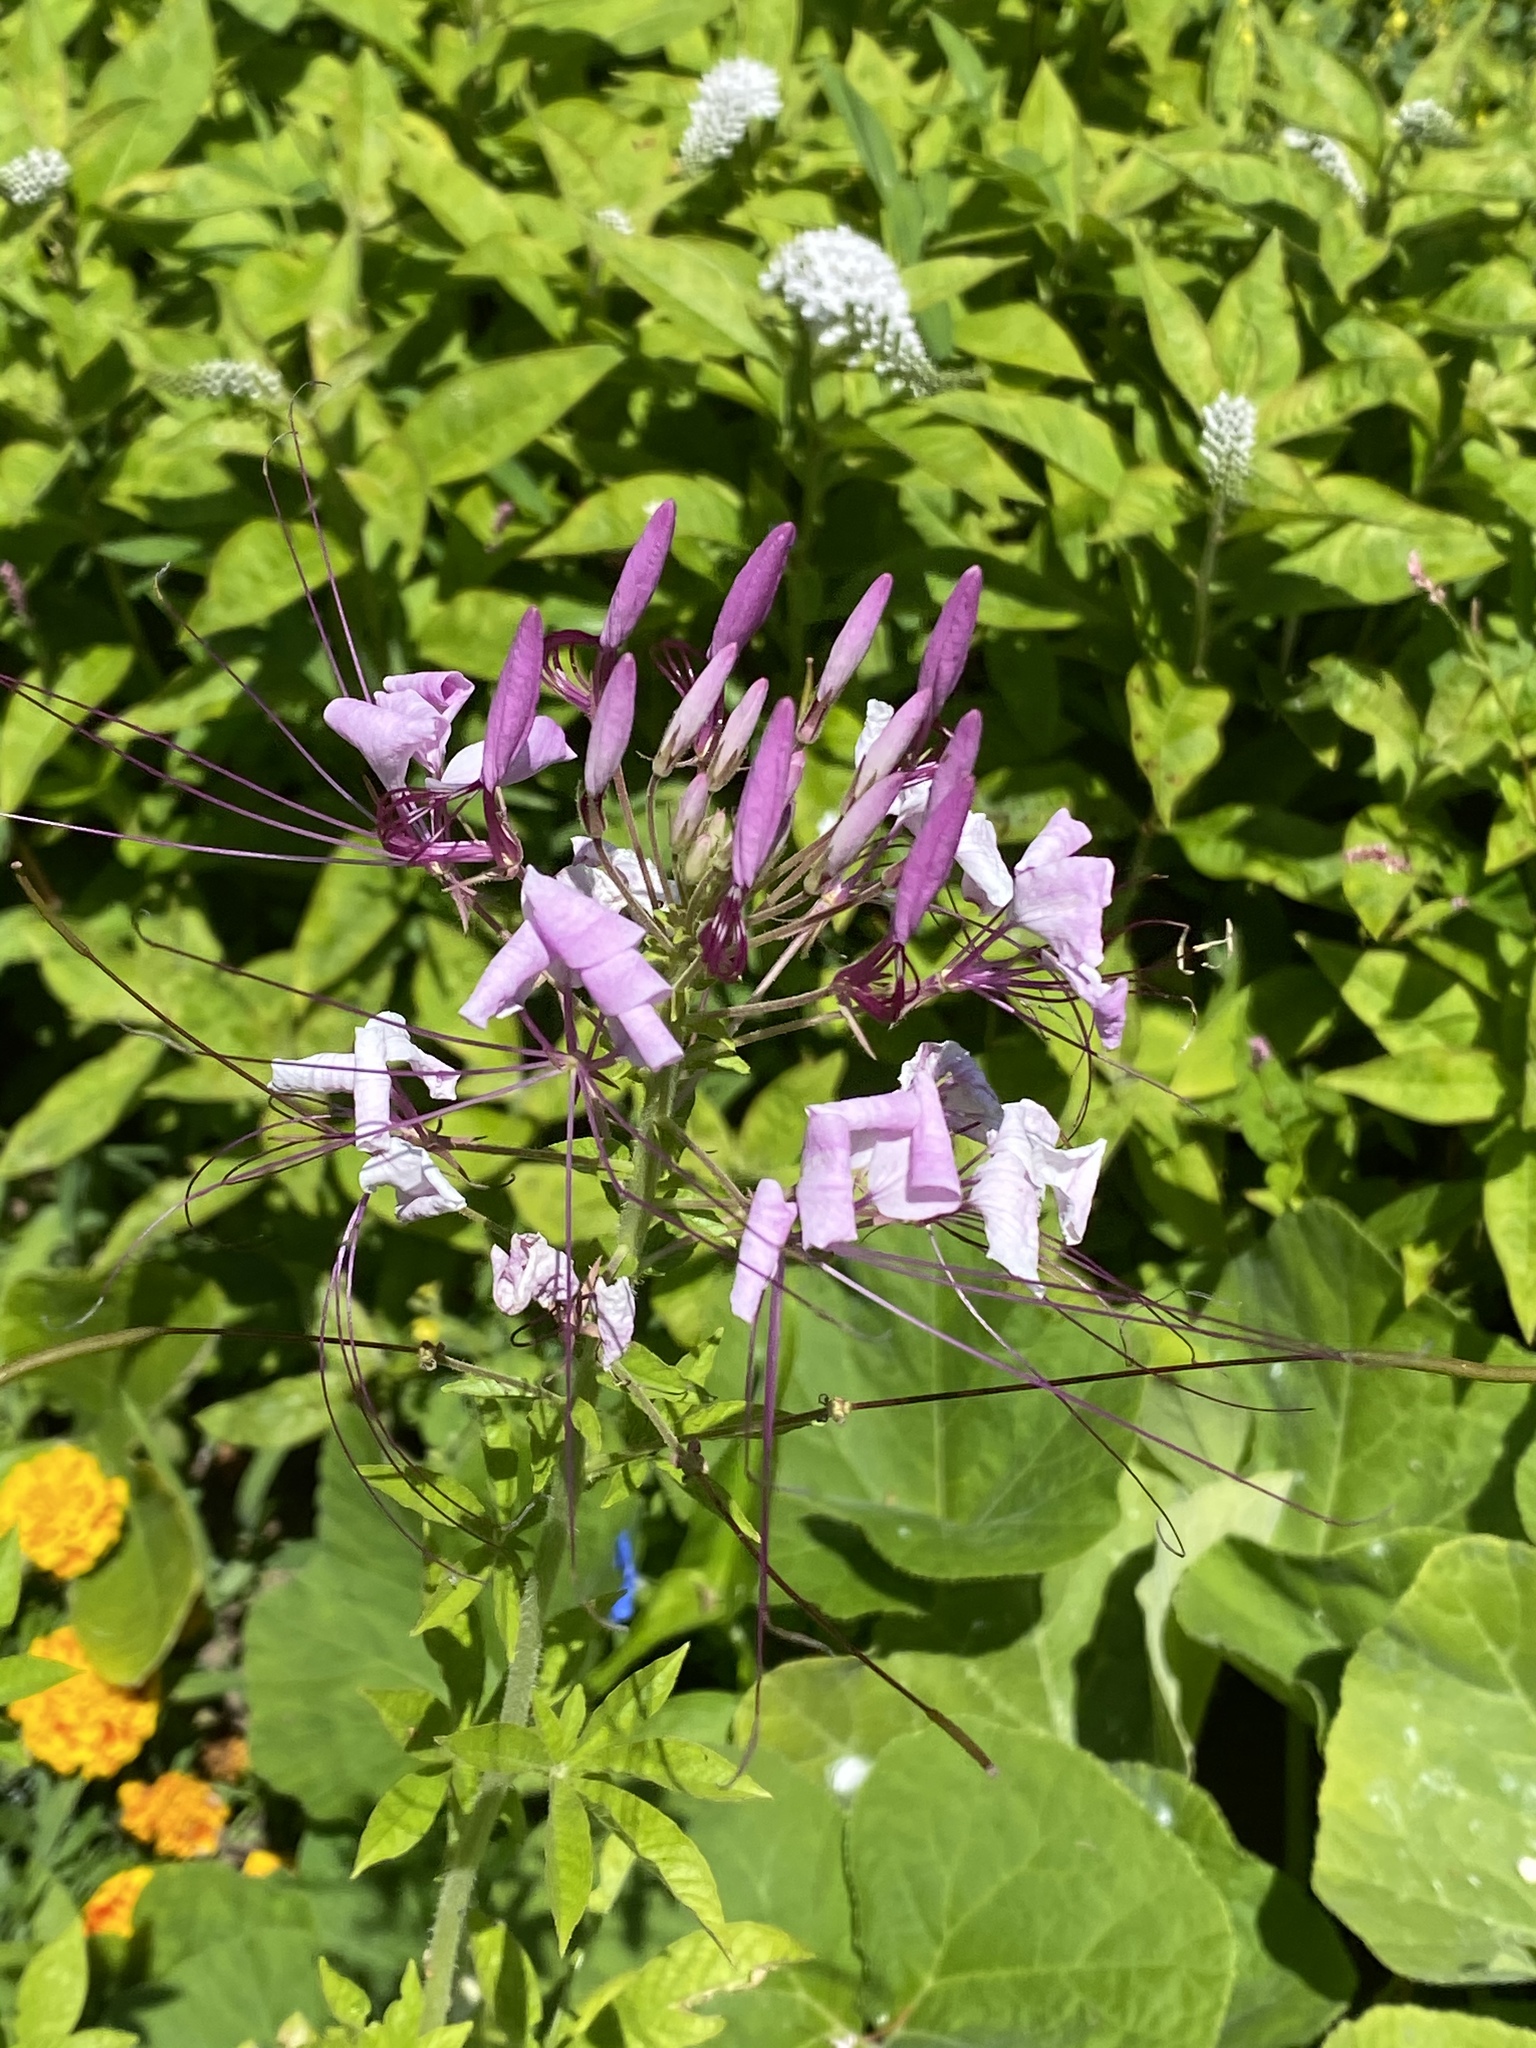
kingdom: Plantae
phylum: Tracheophyta
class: Magnoliopsida
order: Brassicales
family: Cleomaceae
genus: Tarenaya
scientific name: Tarenaya houtteana
